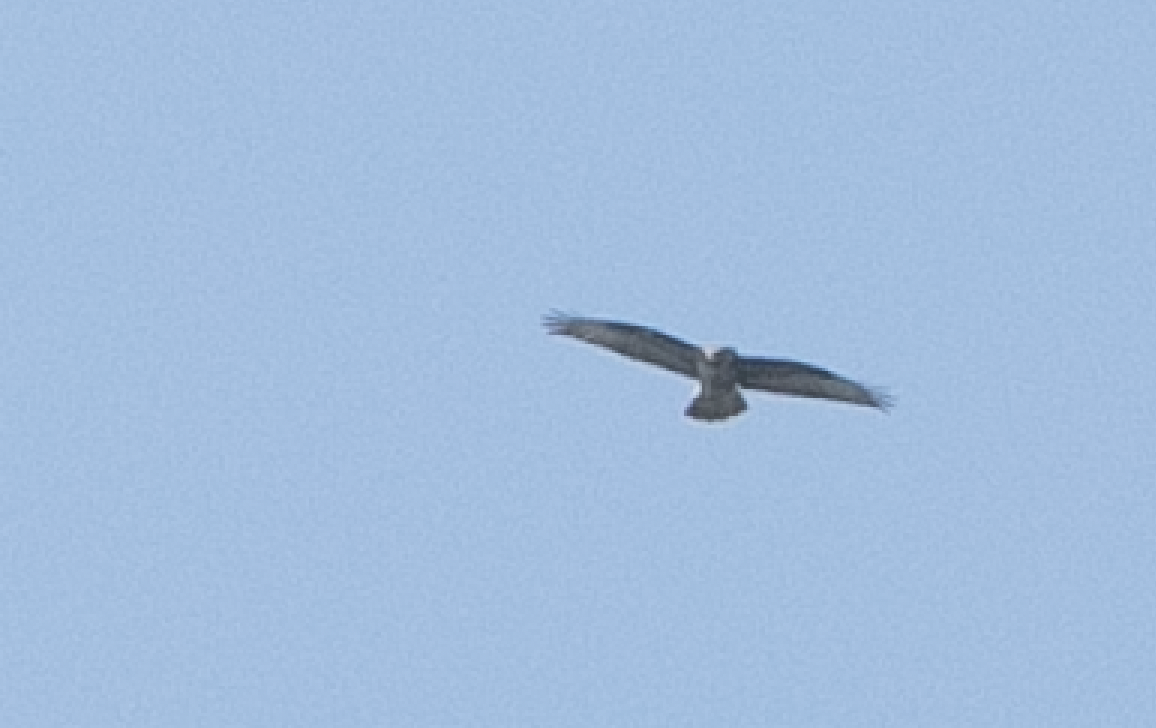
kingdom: Animalia
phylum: Chordata
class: Aves
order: Accipitriformes
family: Accipitridae
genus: Buteo
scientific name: Buteo buteo
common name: Common buzzard
